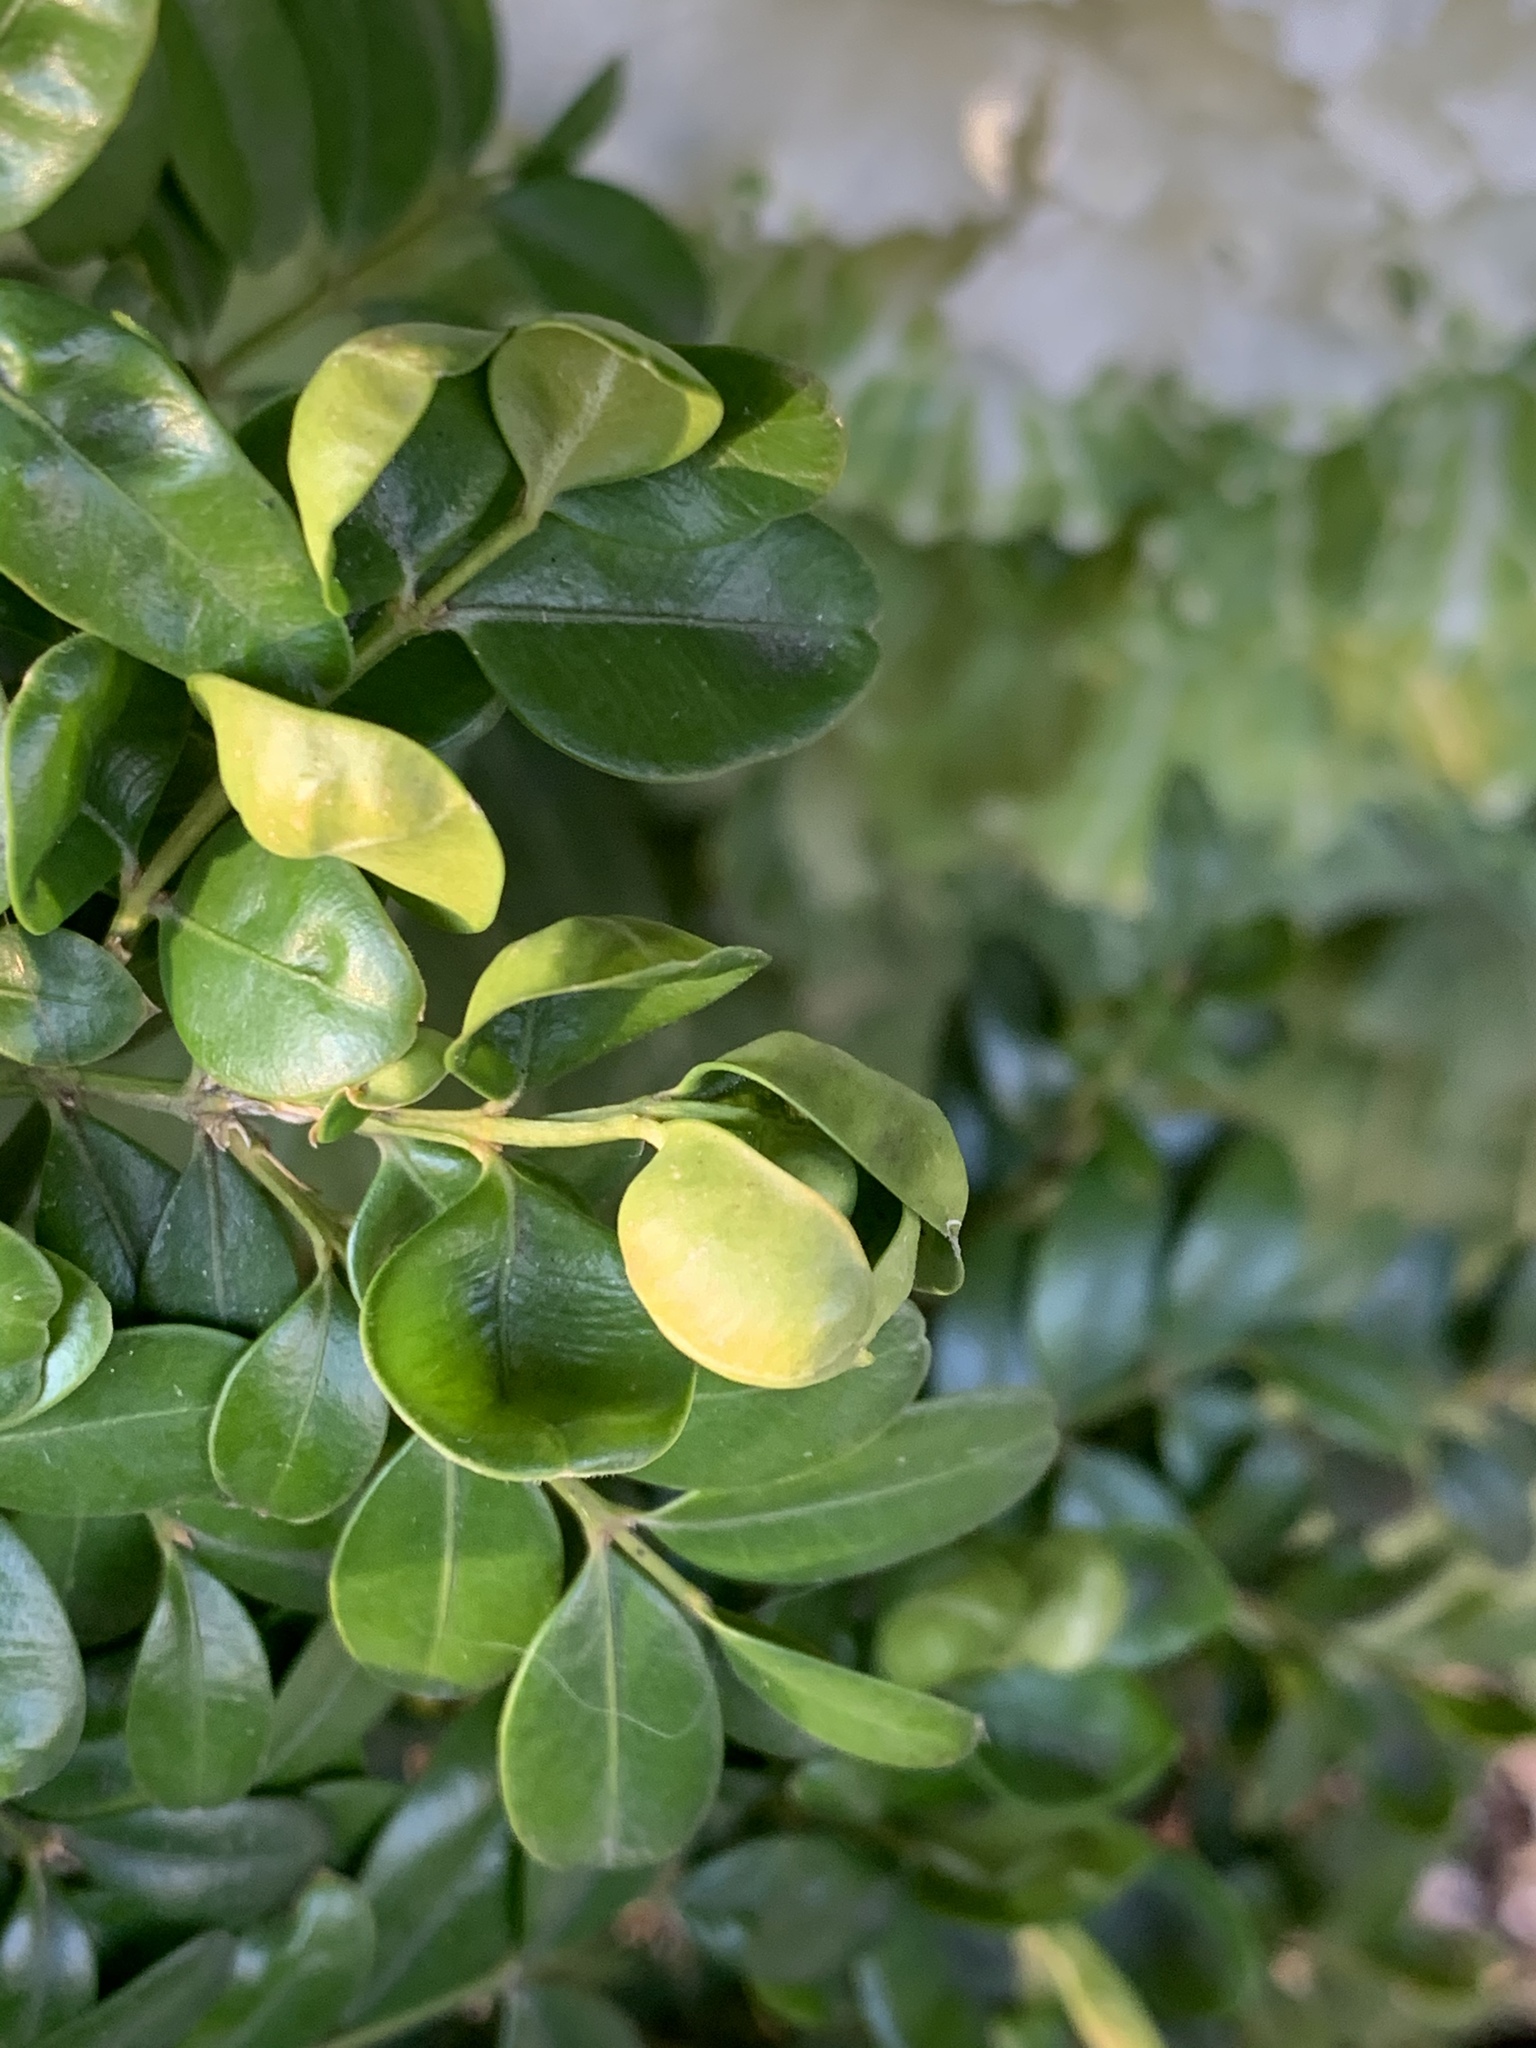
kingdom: Animalia
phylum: Arthropoda
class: Insecta
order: Hemiptera
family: Psyllidae
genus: Psylla
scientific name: Psylla buxi
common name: Boxwood psyllid
